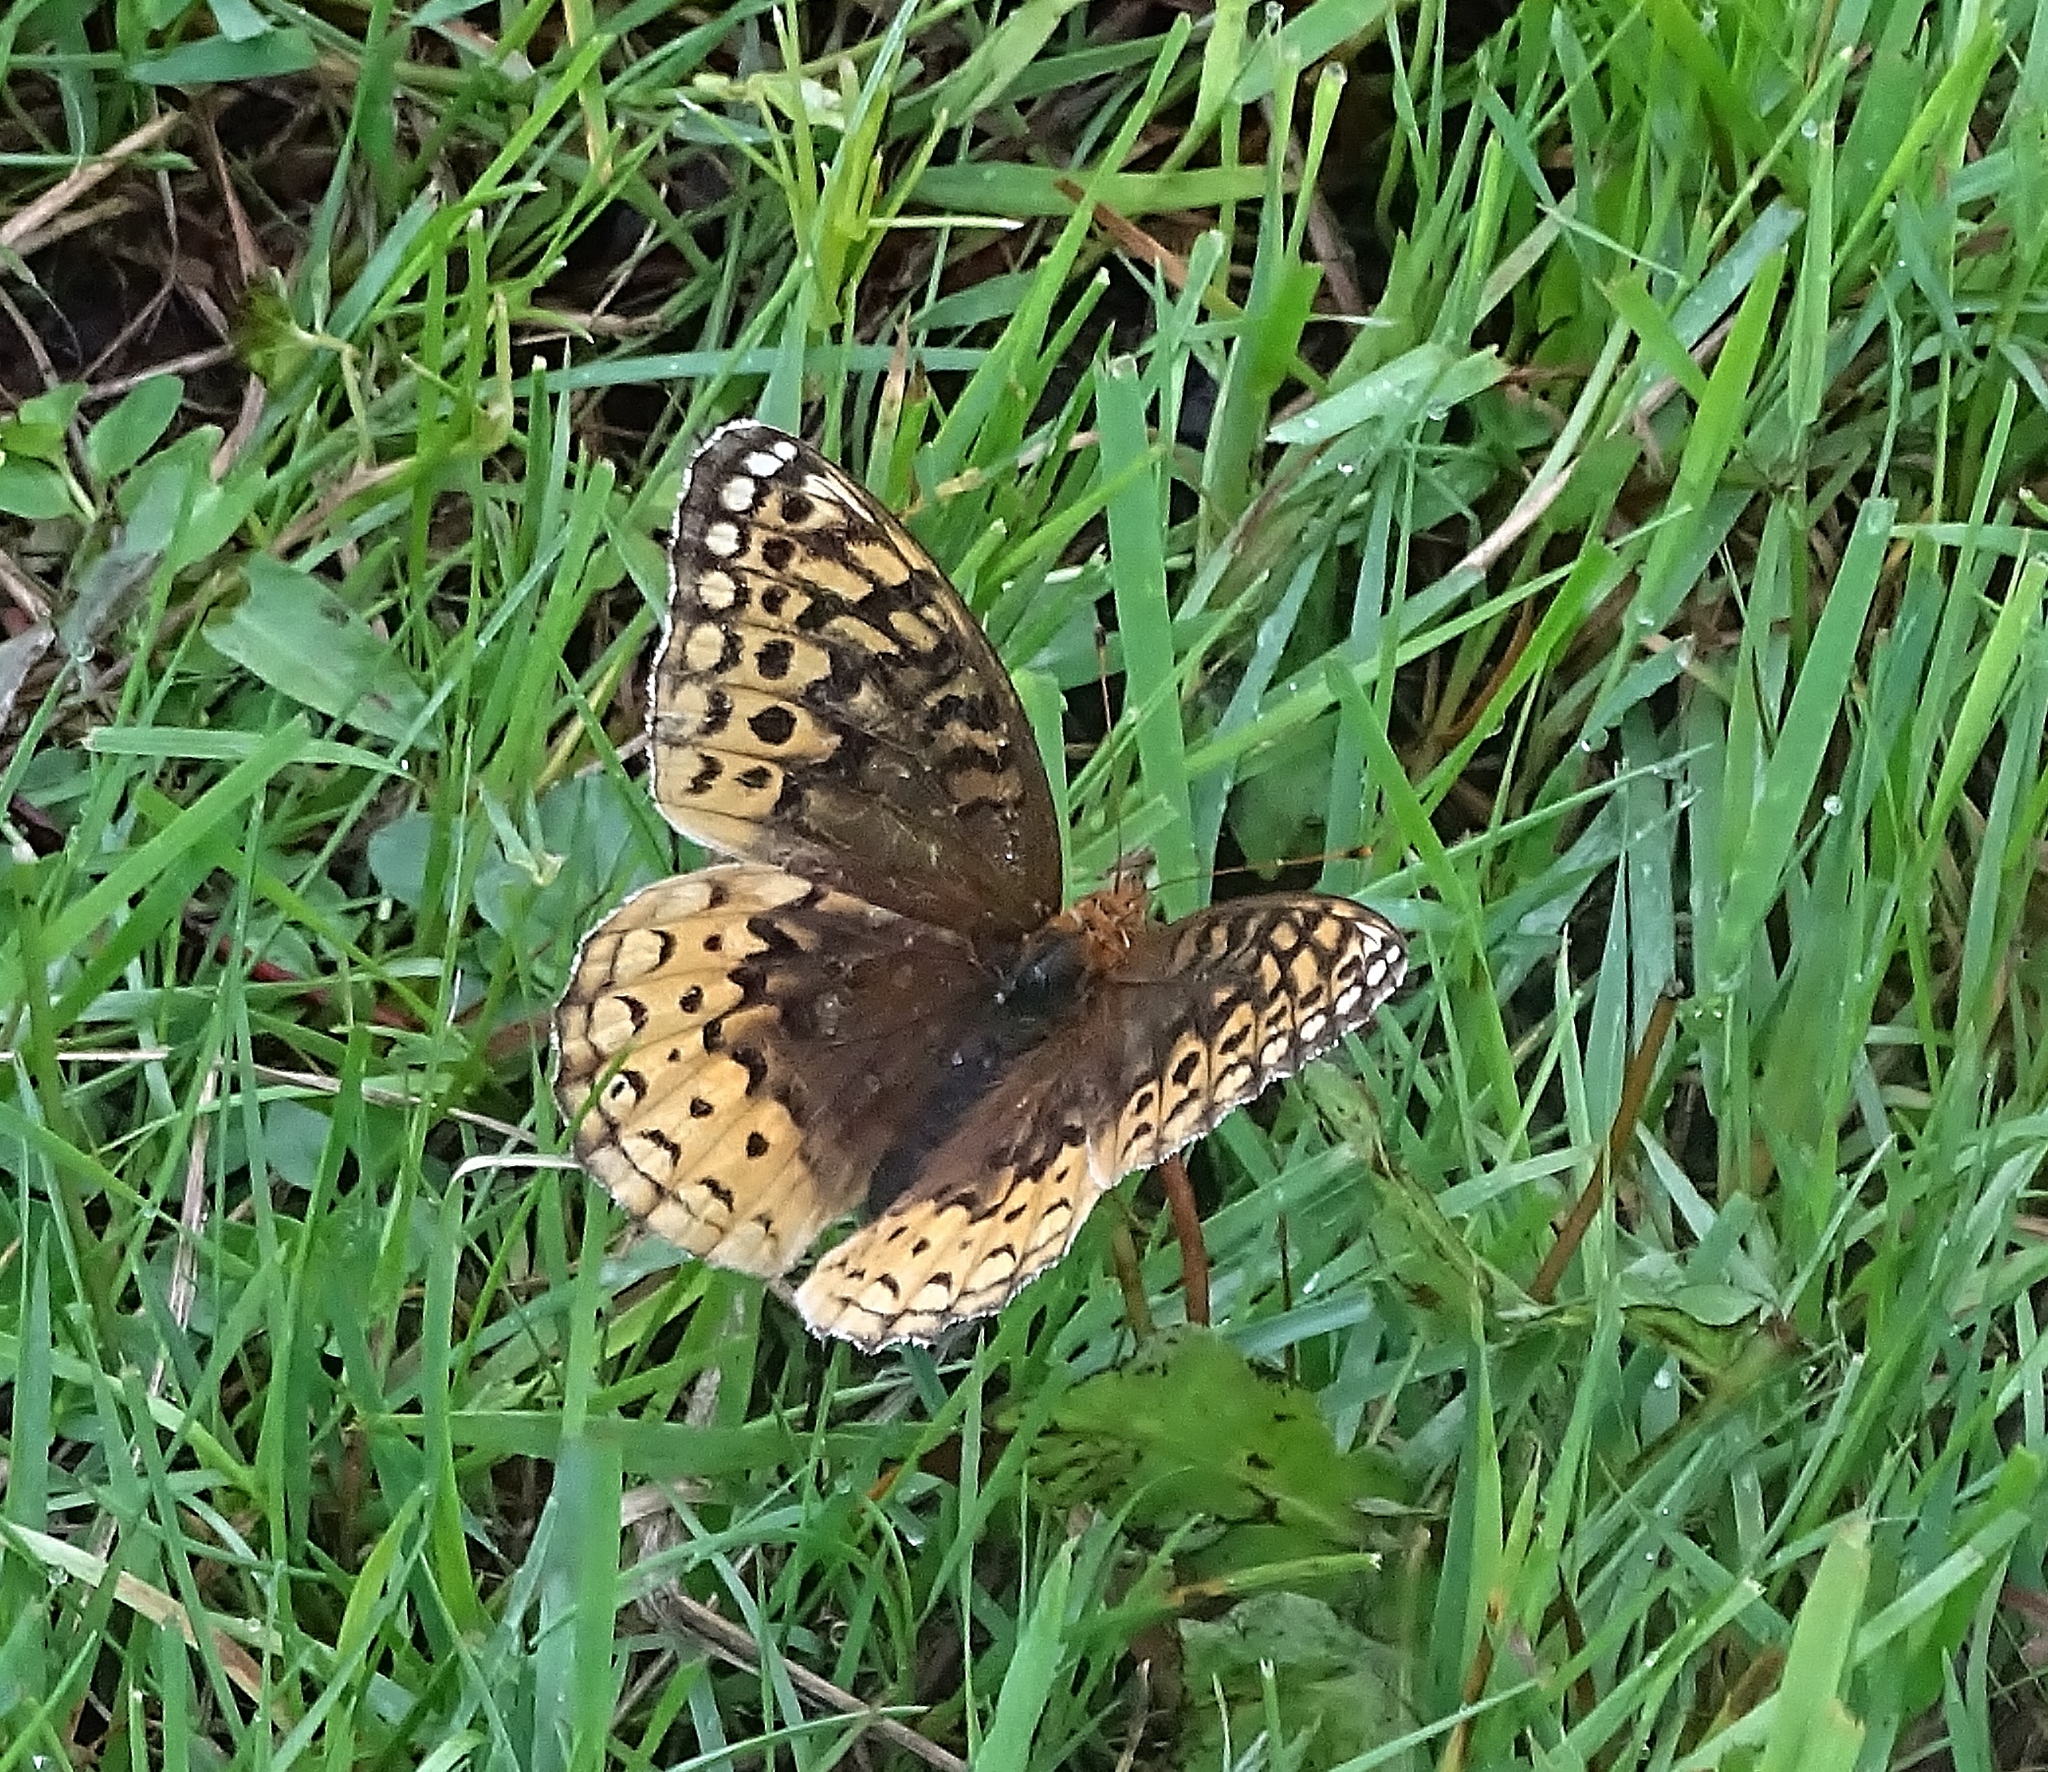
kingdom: Animalia
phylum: Arthropoda
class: Insecta
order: Lepidoptera
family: Nymphalidae
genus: Speyeria
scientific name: Speyeria cybele
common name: Great spangled fritillary
